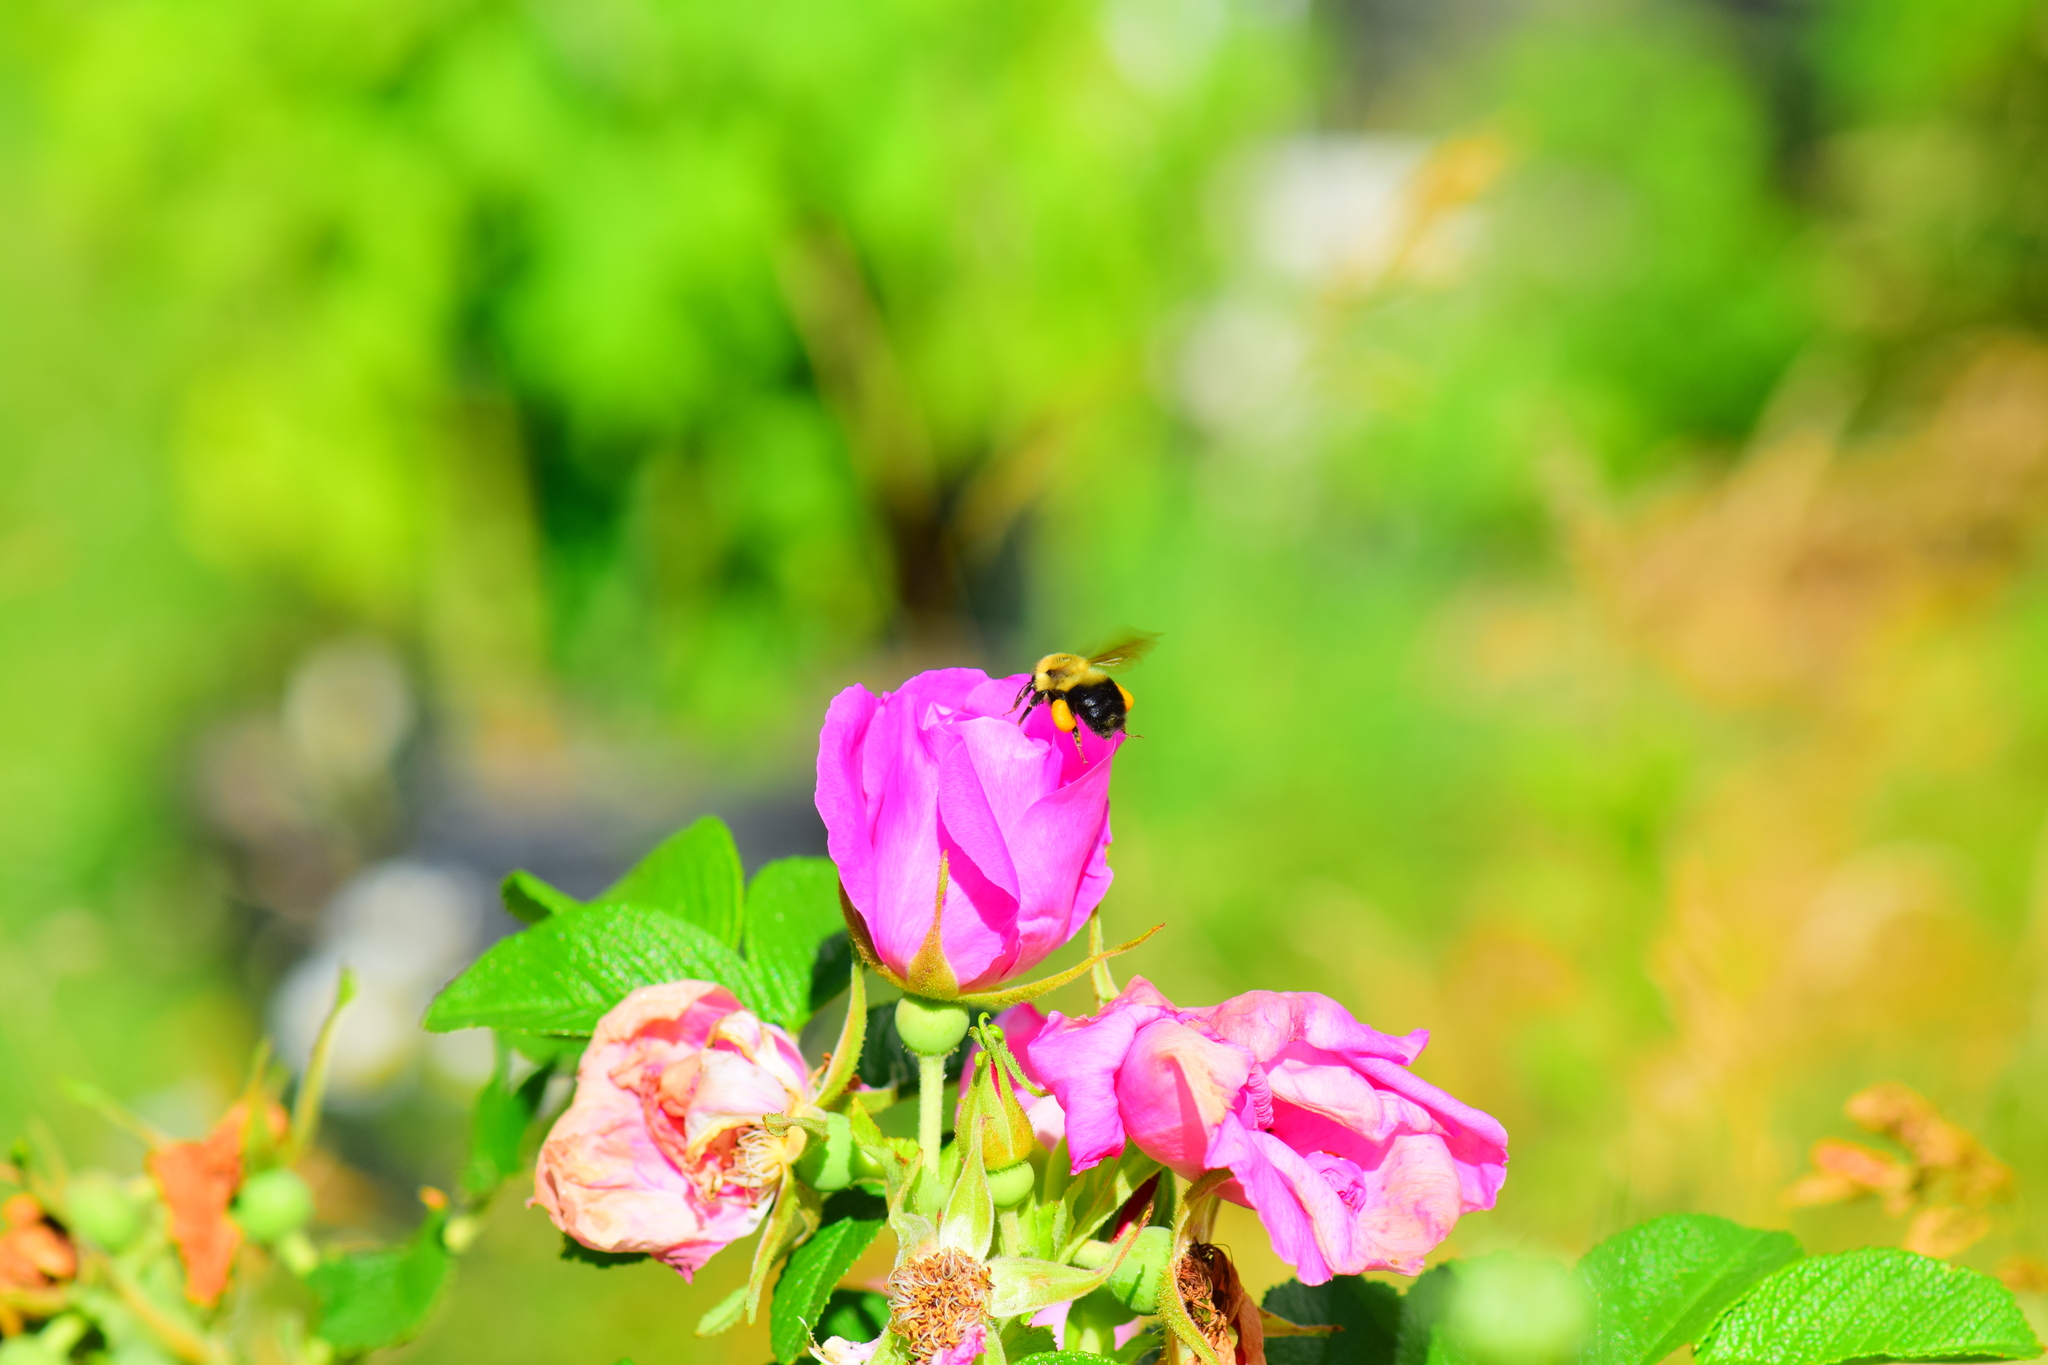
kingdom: Animalia
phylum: Arthropoda
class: Insecta
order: Hymenoptera
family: Apidae
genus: Bombus
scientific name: Bombus bimaculatus
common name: Two-spotted bumble bee
